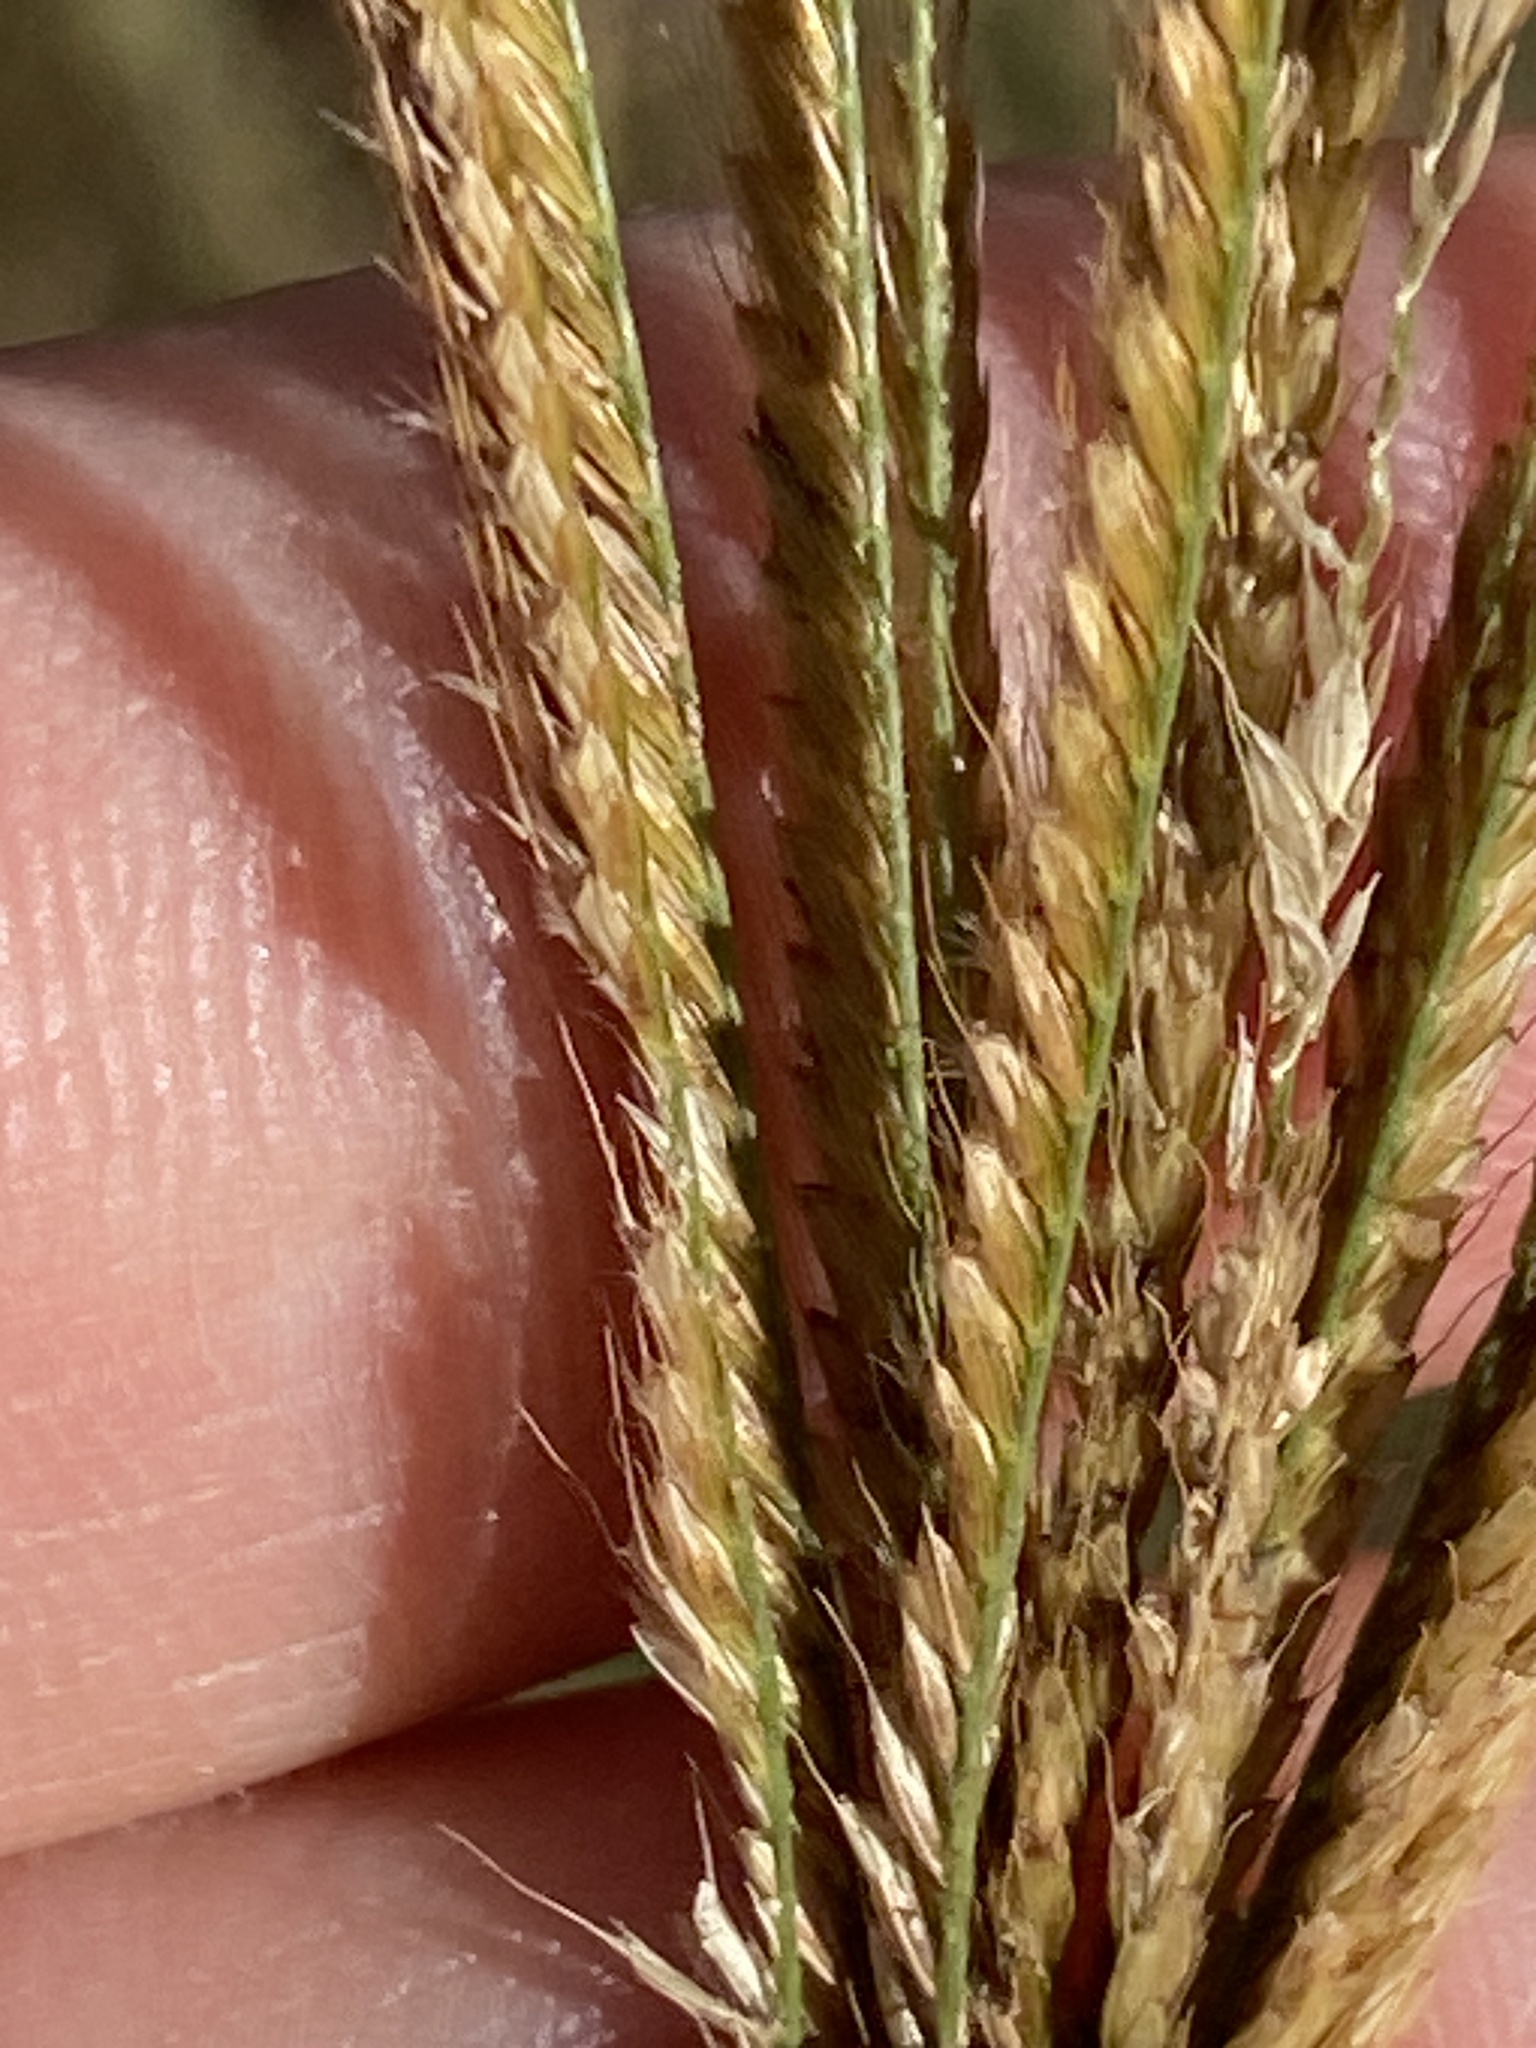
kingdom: Plantae
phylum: Tracheophyta
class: Liliopsida
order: Poales
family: Poaceae
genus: Chloris
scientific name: Chloris gayana
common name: Rhodes grass
